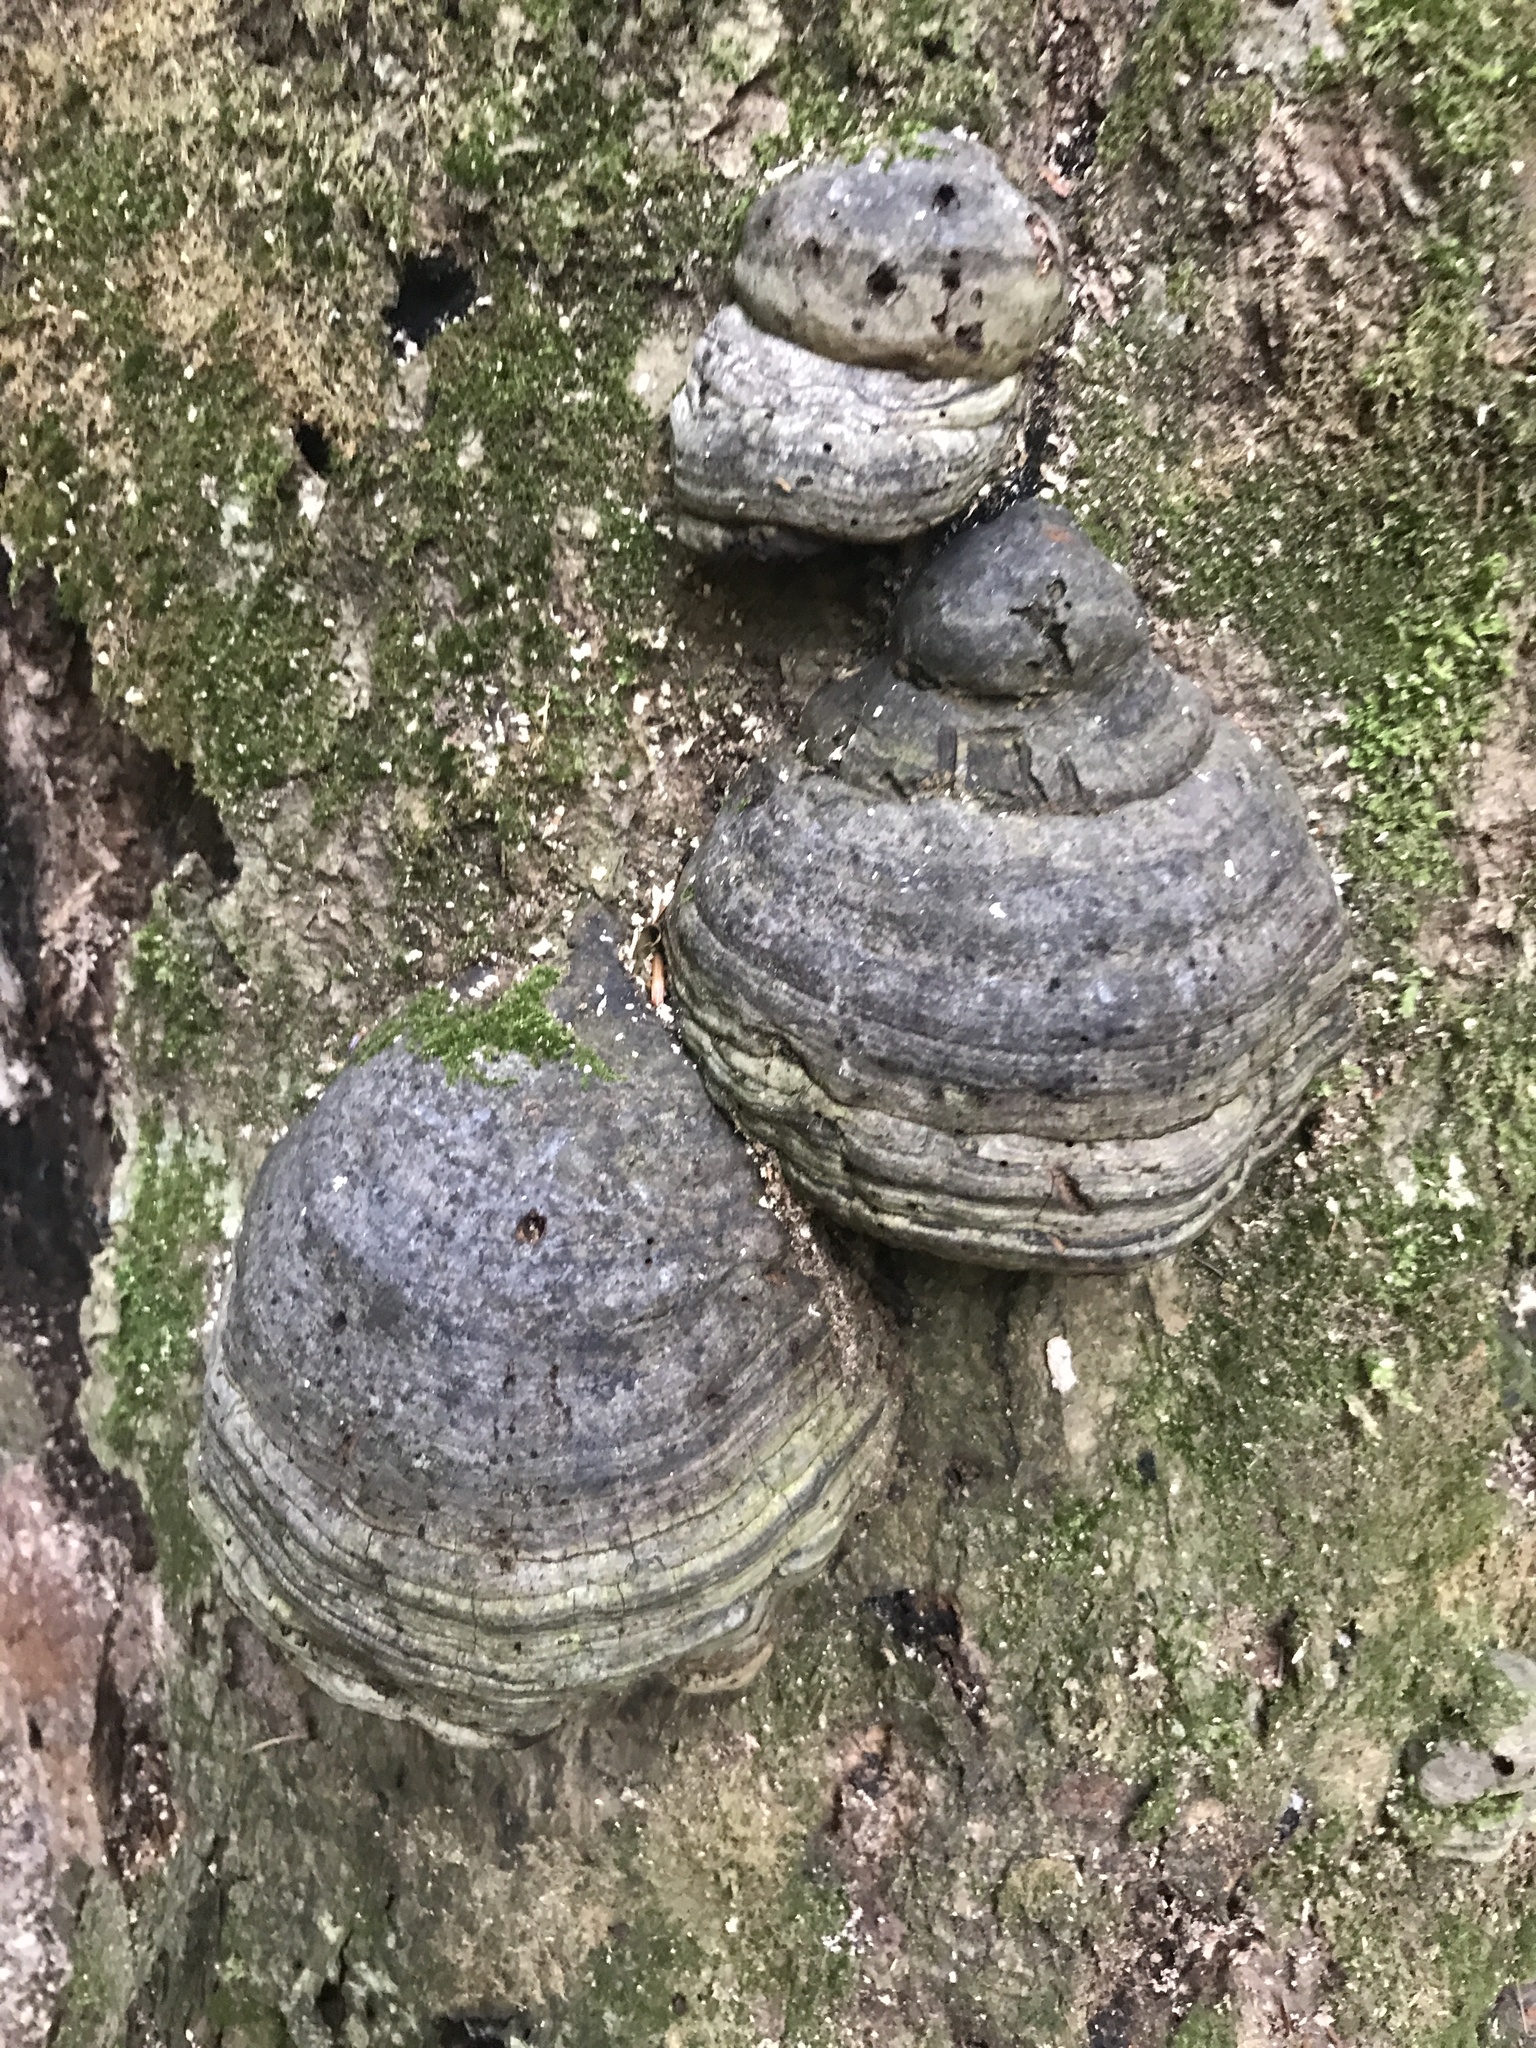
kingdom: Fungi
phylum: Basidiomycota
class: Agaricomycetes
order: Polyporales
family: Polyporaceae
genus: Fomes
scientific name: Fomes fomentarius
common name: Hoof fungus
